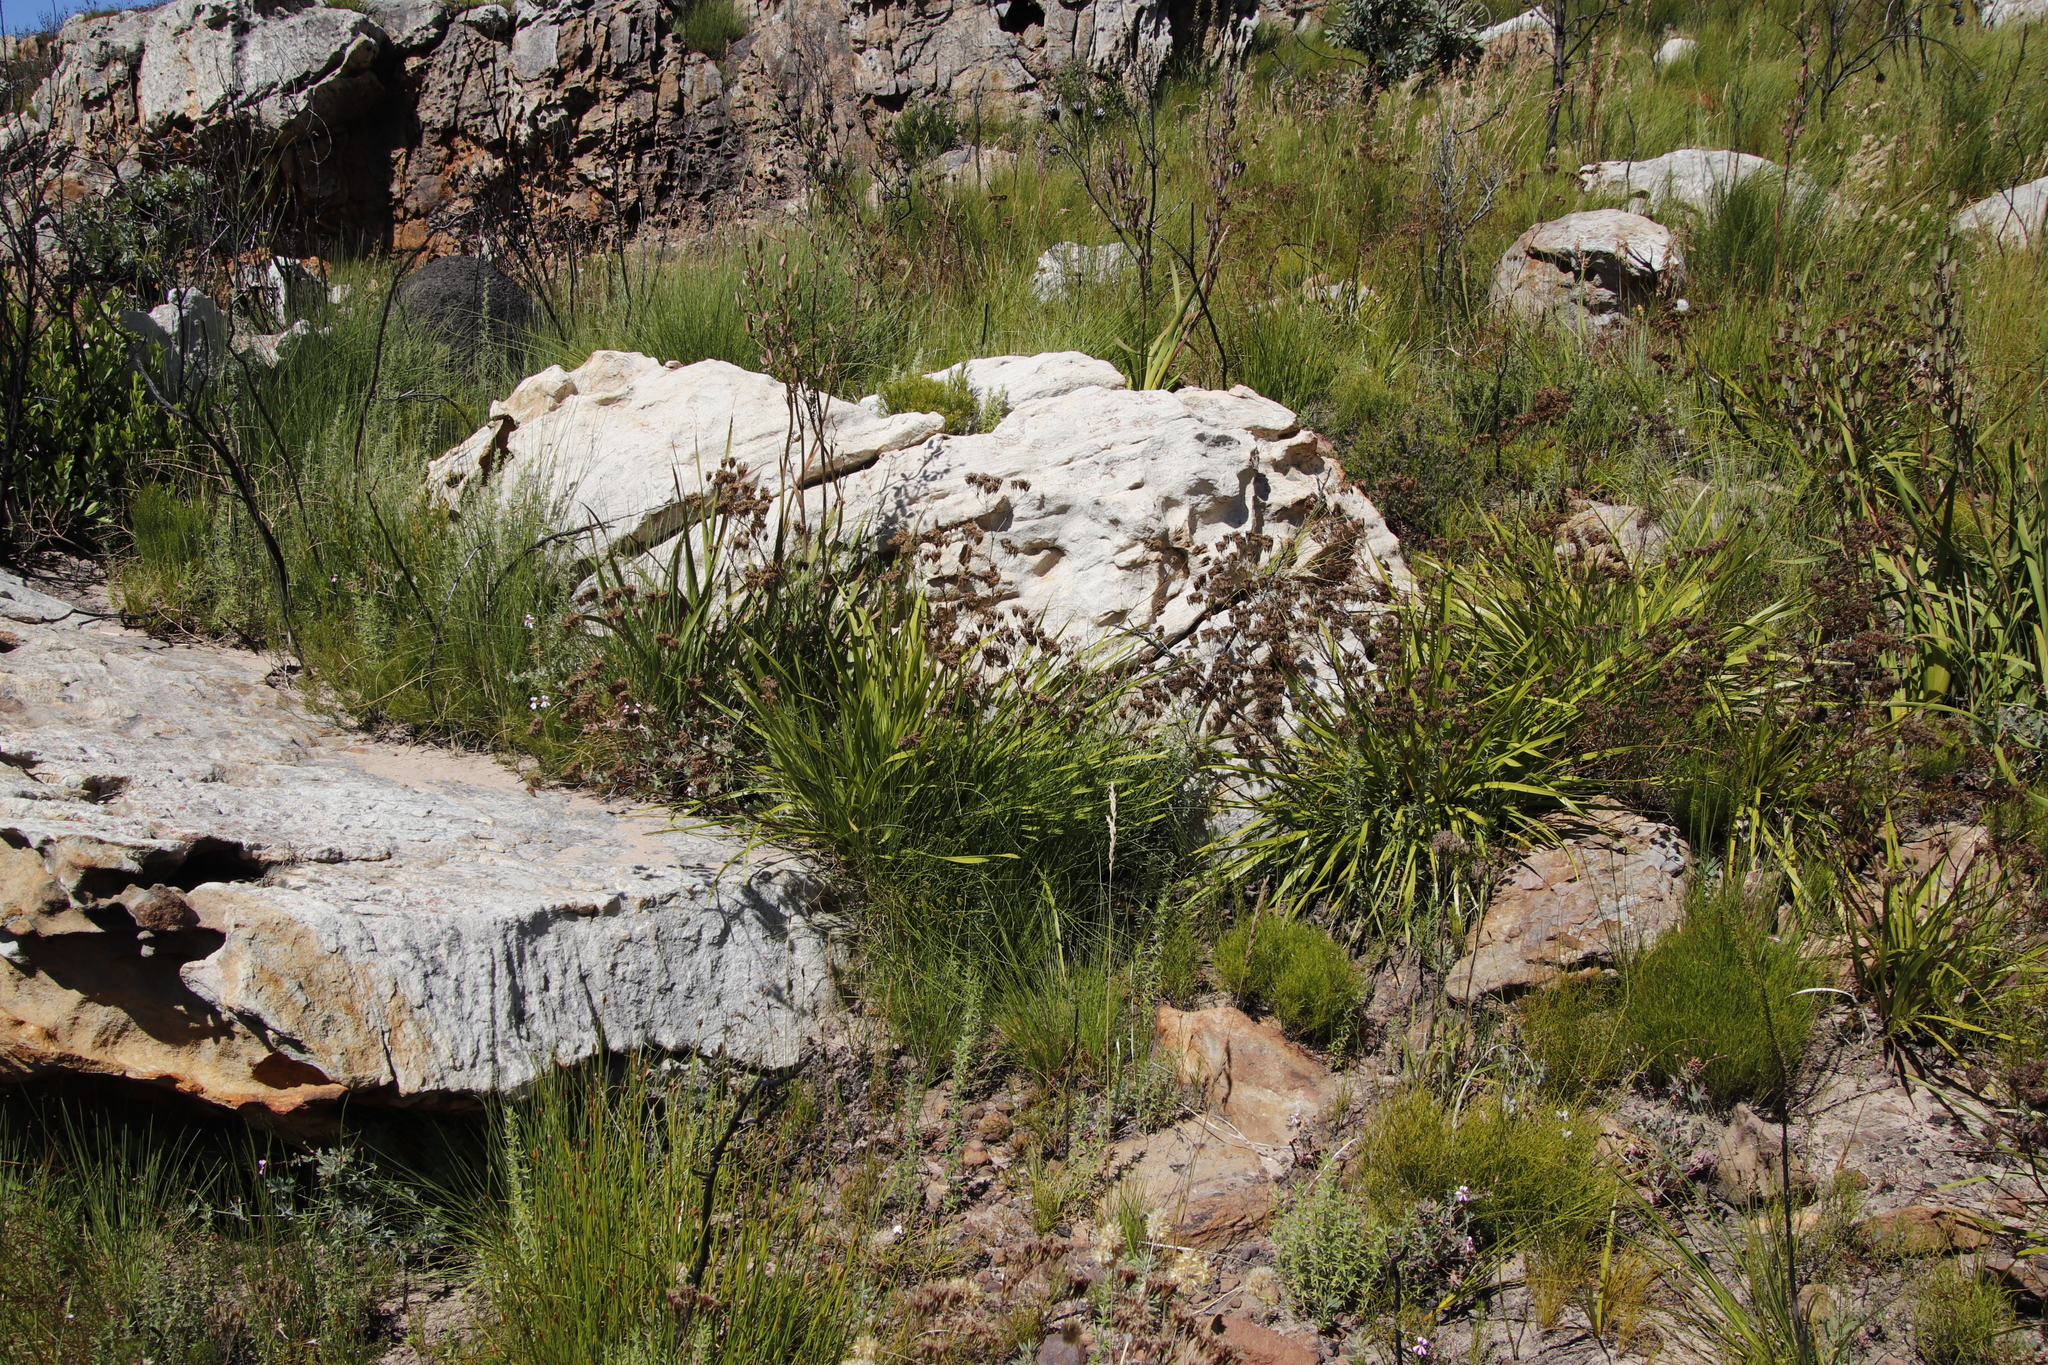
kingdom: Plantae
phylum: Tracheophyta
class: Magnoliopsida
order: Geraniales
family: Geraniaceae
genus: Pelargonium
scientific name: Pelargonium patulum
